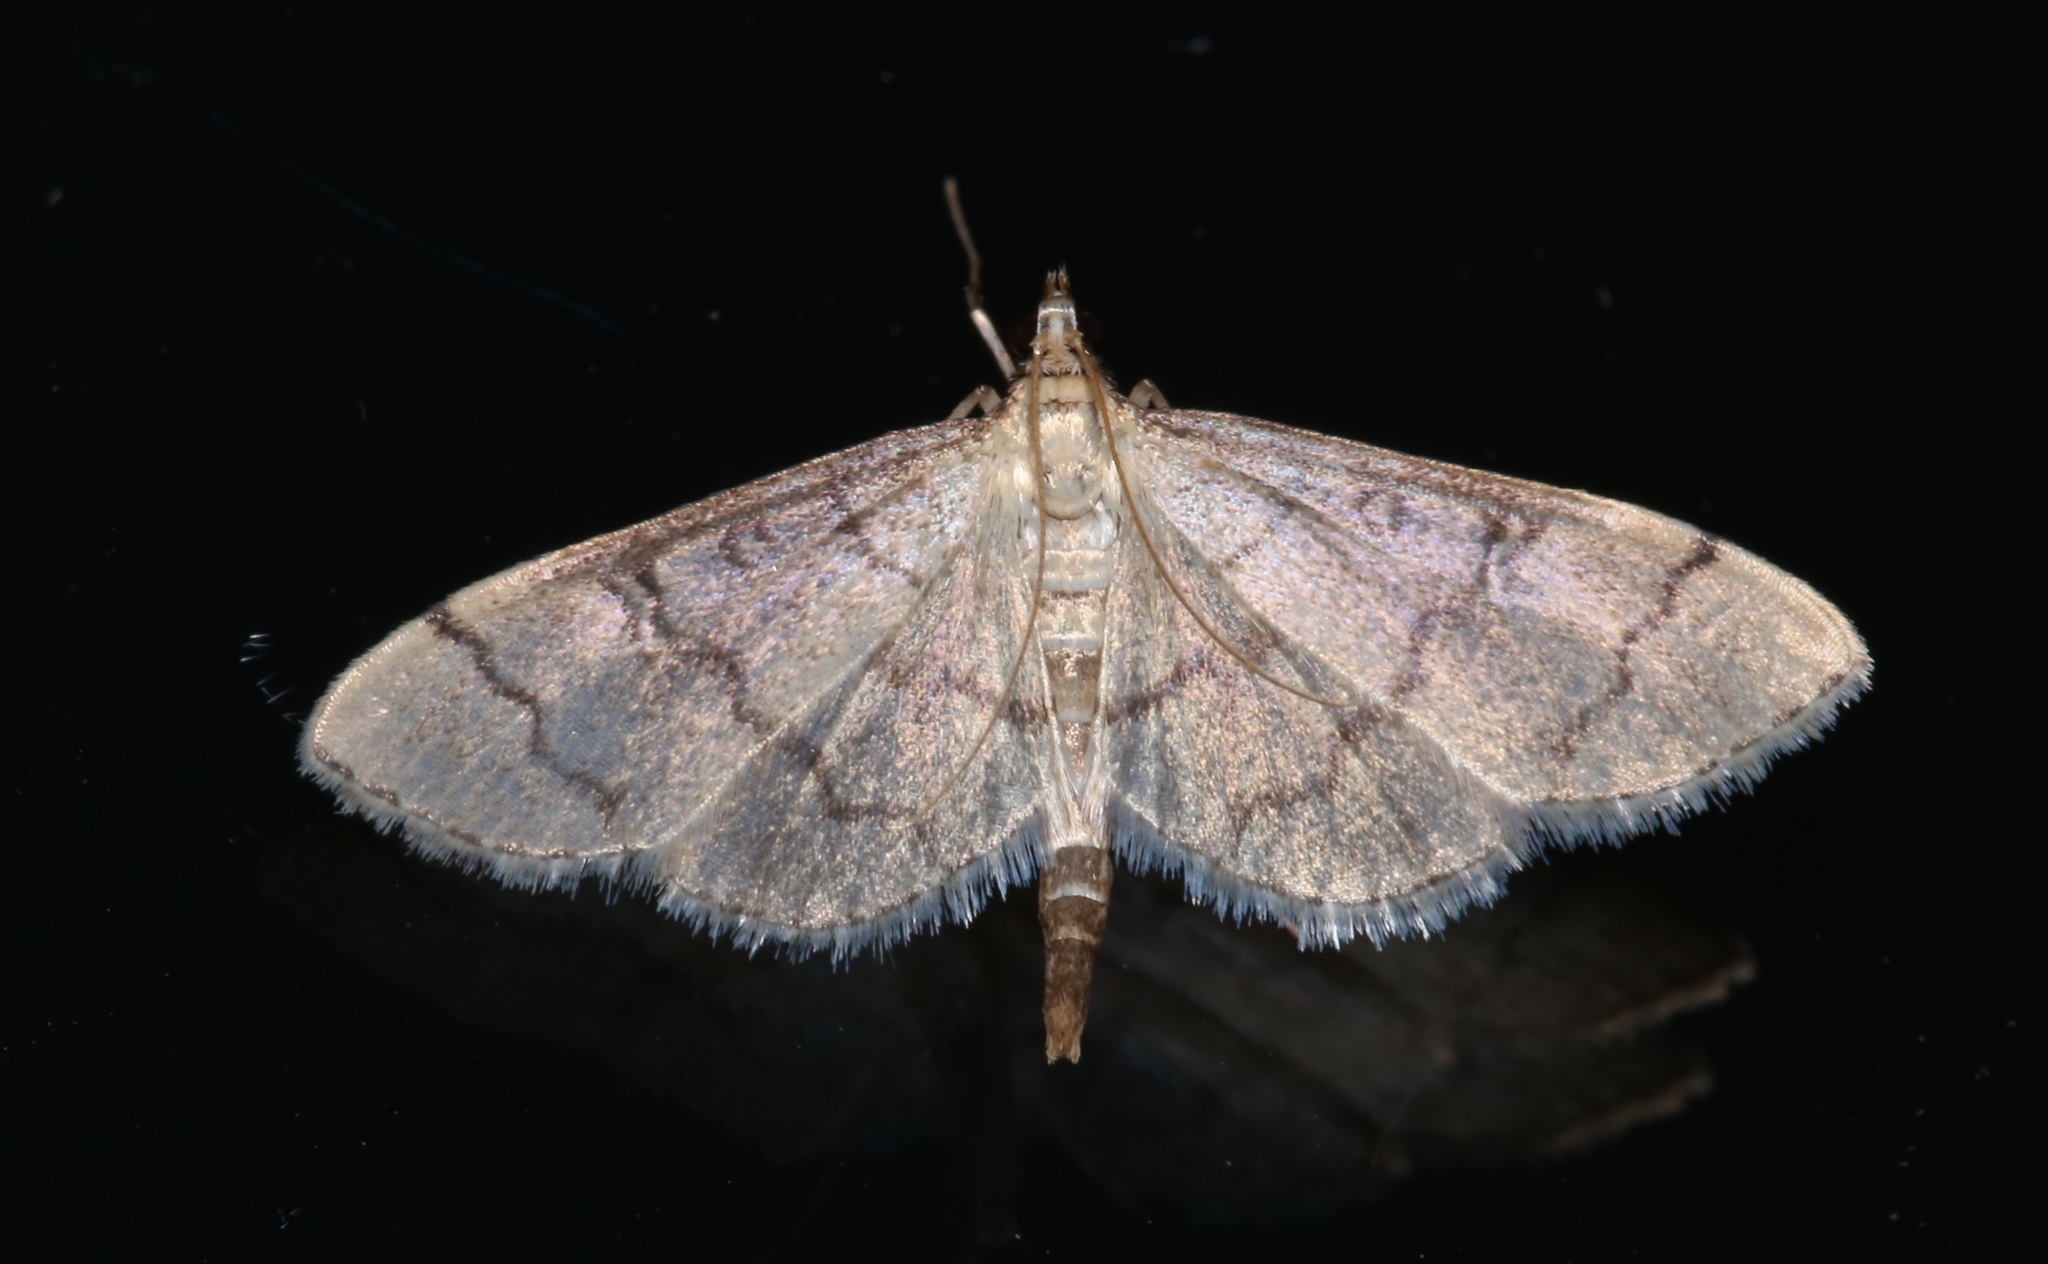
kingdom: Animalia
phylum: Arthropoda
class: Insecta
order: Lepidoptera
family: Crambidae
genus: Lamprosema
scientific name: Lamprosema Blepharomastix ranalis
